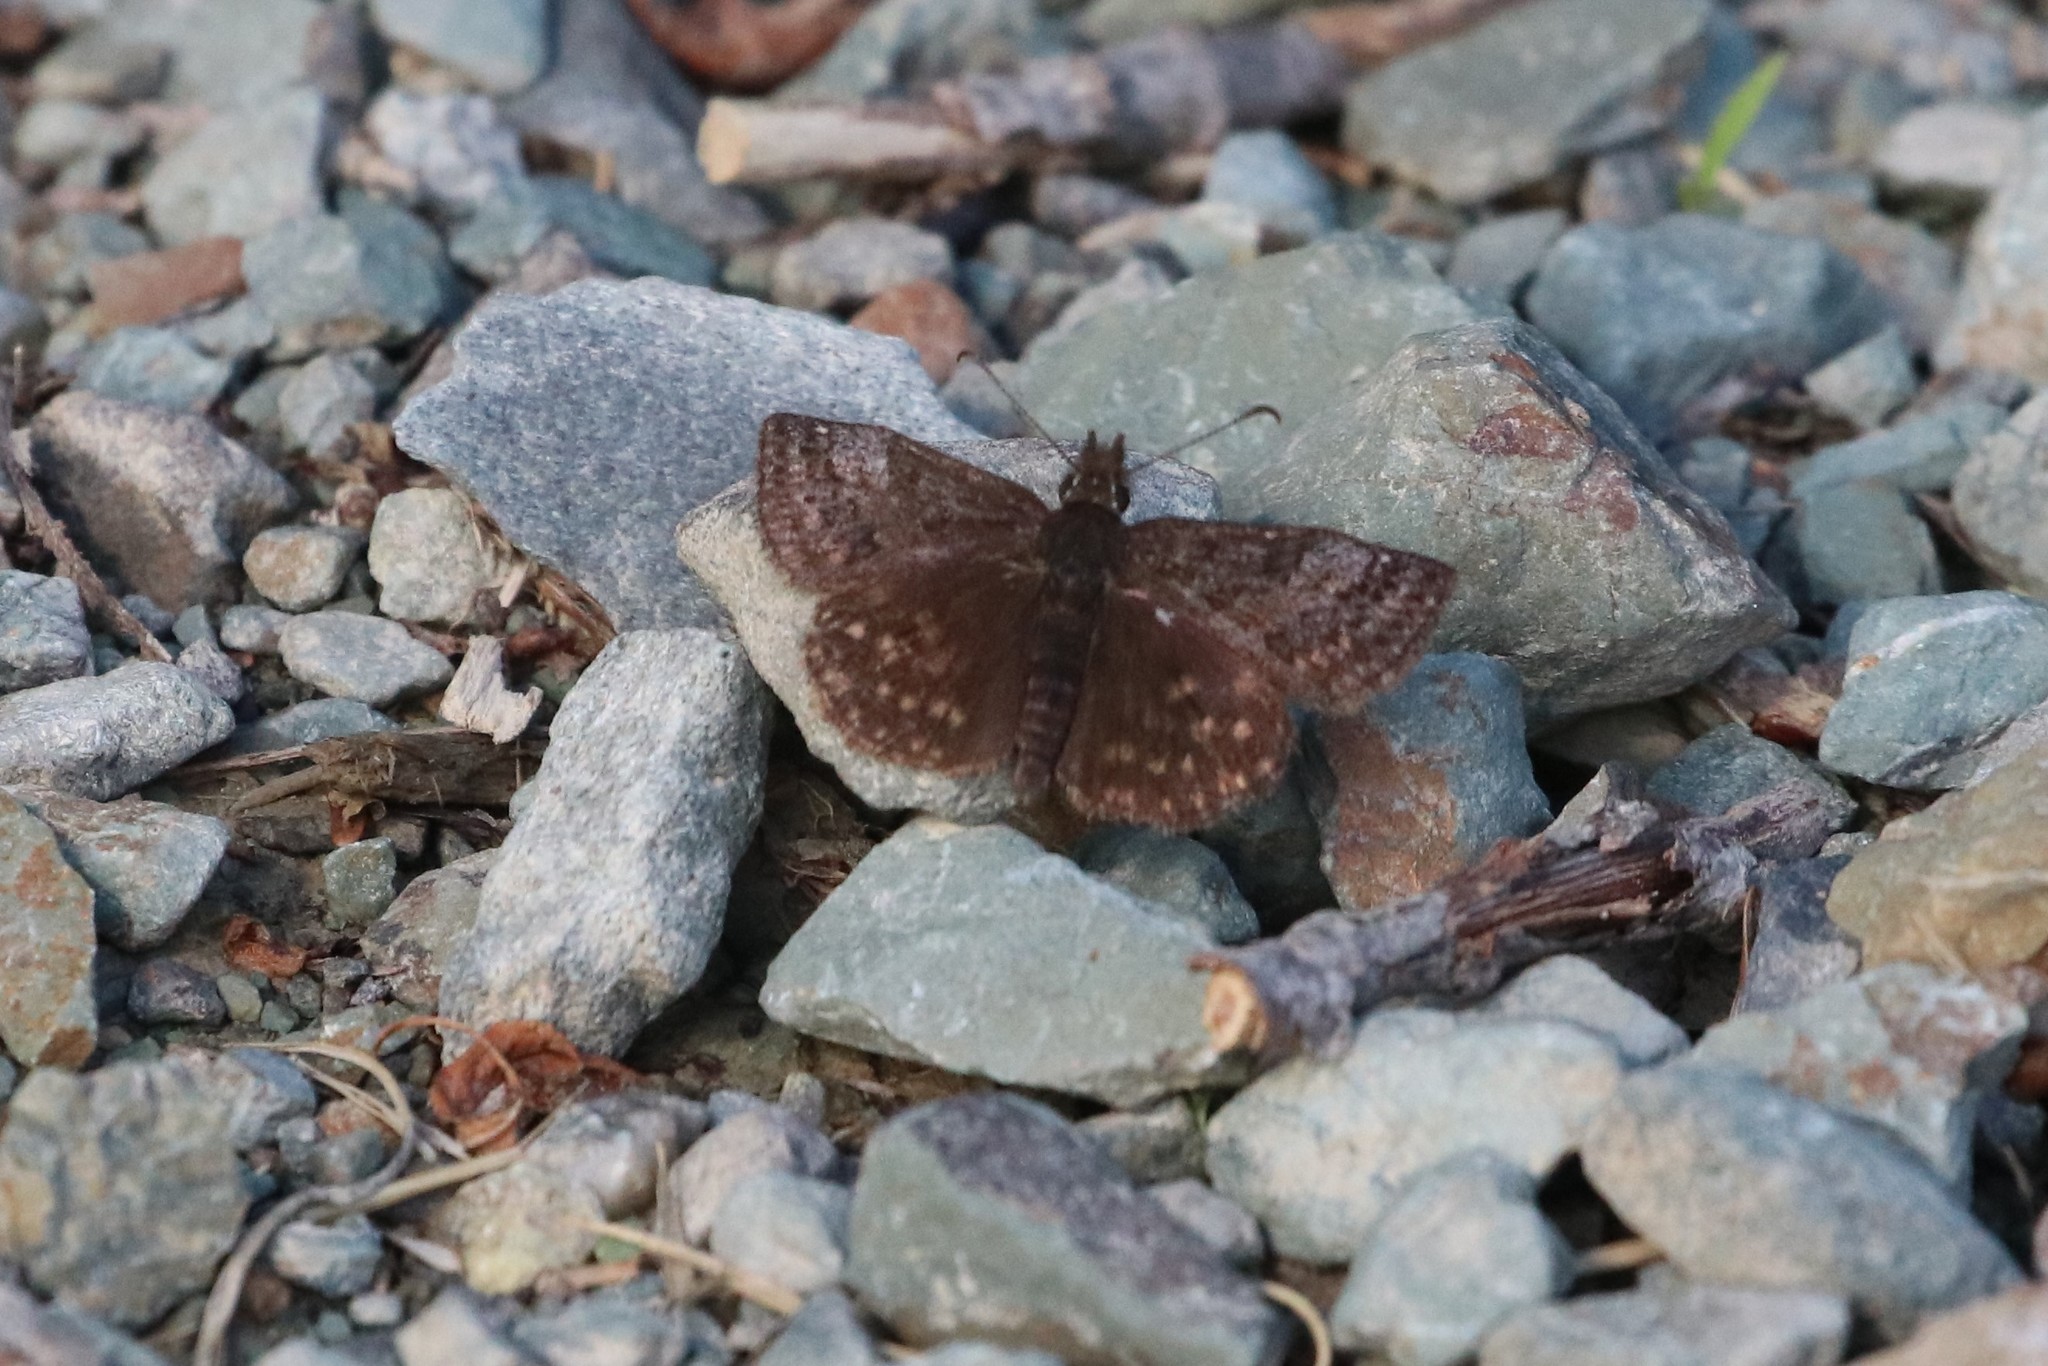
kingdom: Animalia
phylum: Arthropoda
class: Insecta
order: Lepidoptera
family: Hesperiidae
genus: Erynnis
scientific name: Erynnis icelus
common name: Dreamy duskywing
